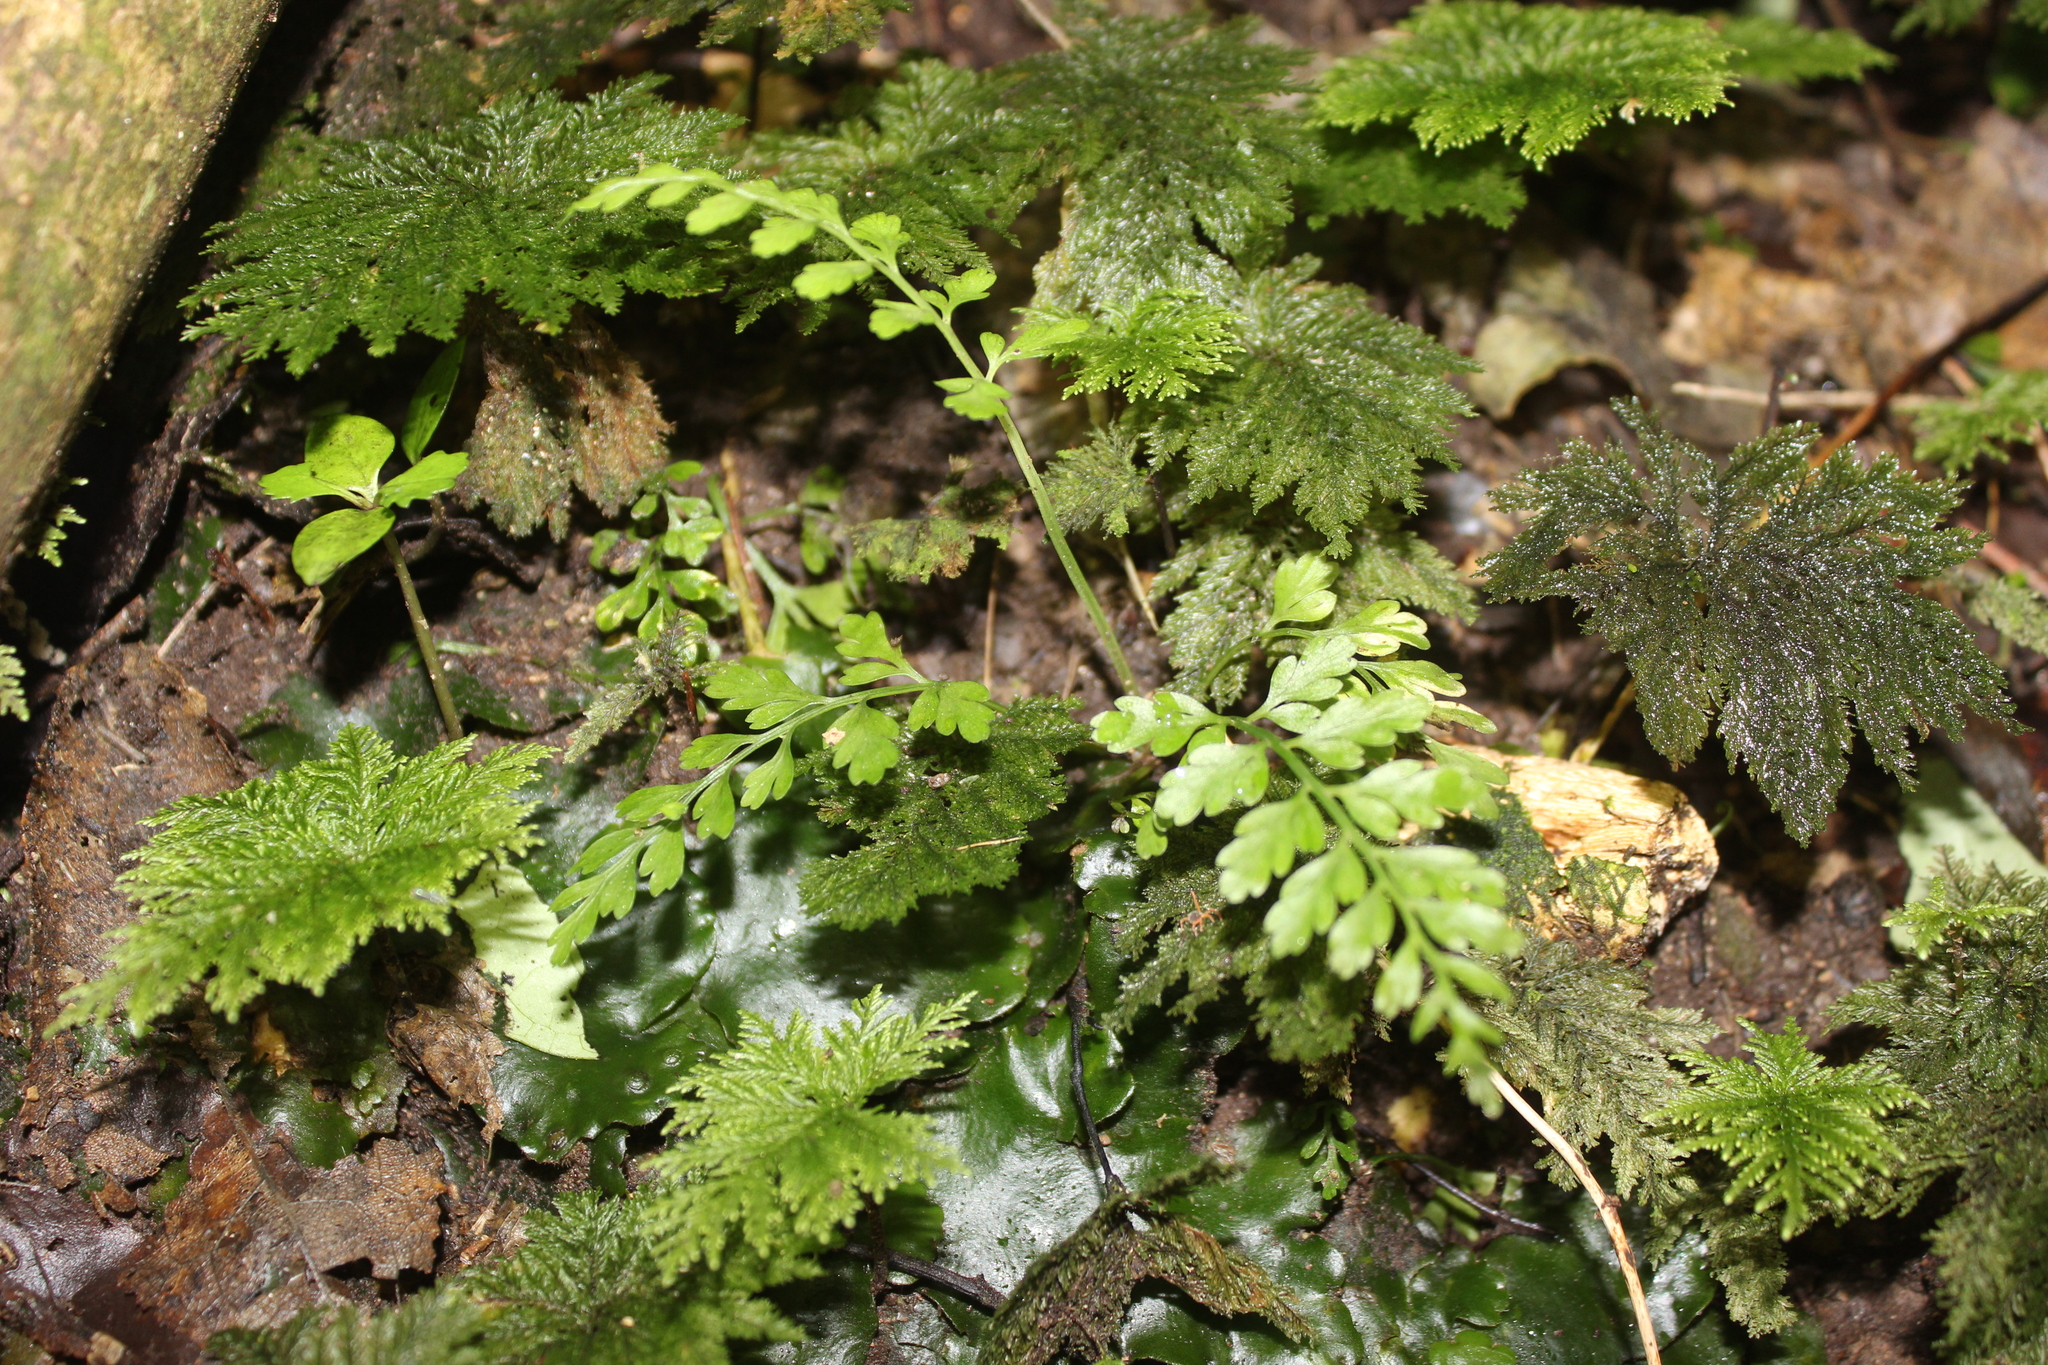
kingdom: Plantae
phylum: Tracheophyta
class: Polypodiopsida
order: Polypodiales
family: Aspleniaceae
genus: Asplenium
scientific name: Asplenium bulbiferum
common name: Mother fern
